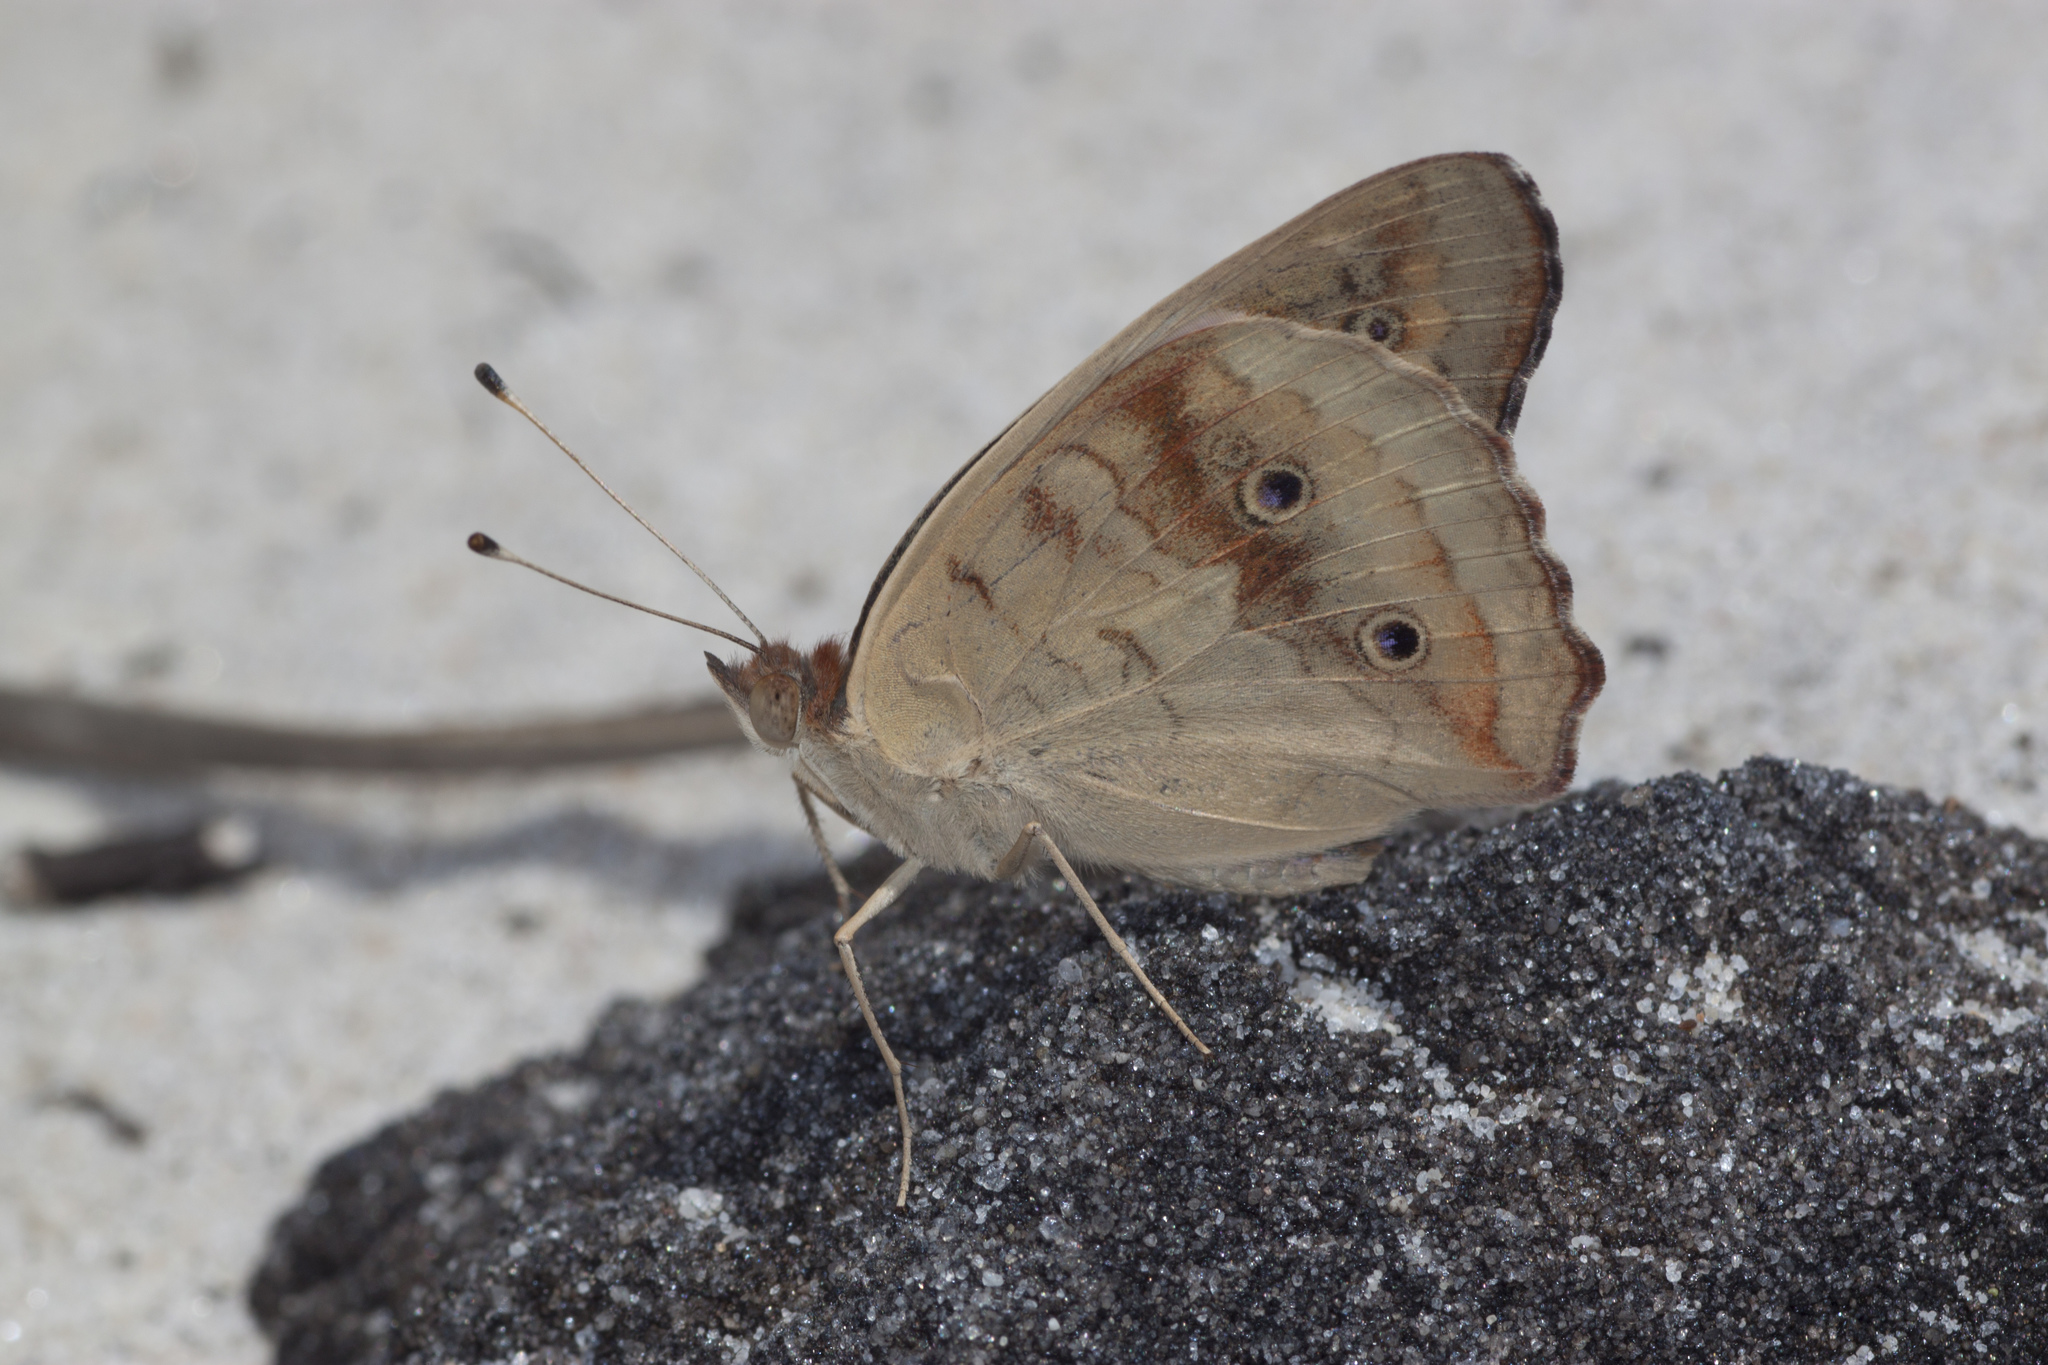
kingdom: Animalia
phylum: Arthropoda
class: Insecta
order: Lepidoptera
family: Nymphalidae
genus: Junonia
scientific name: Junonia coenia
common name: Common buckeye
